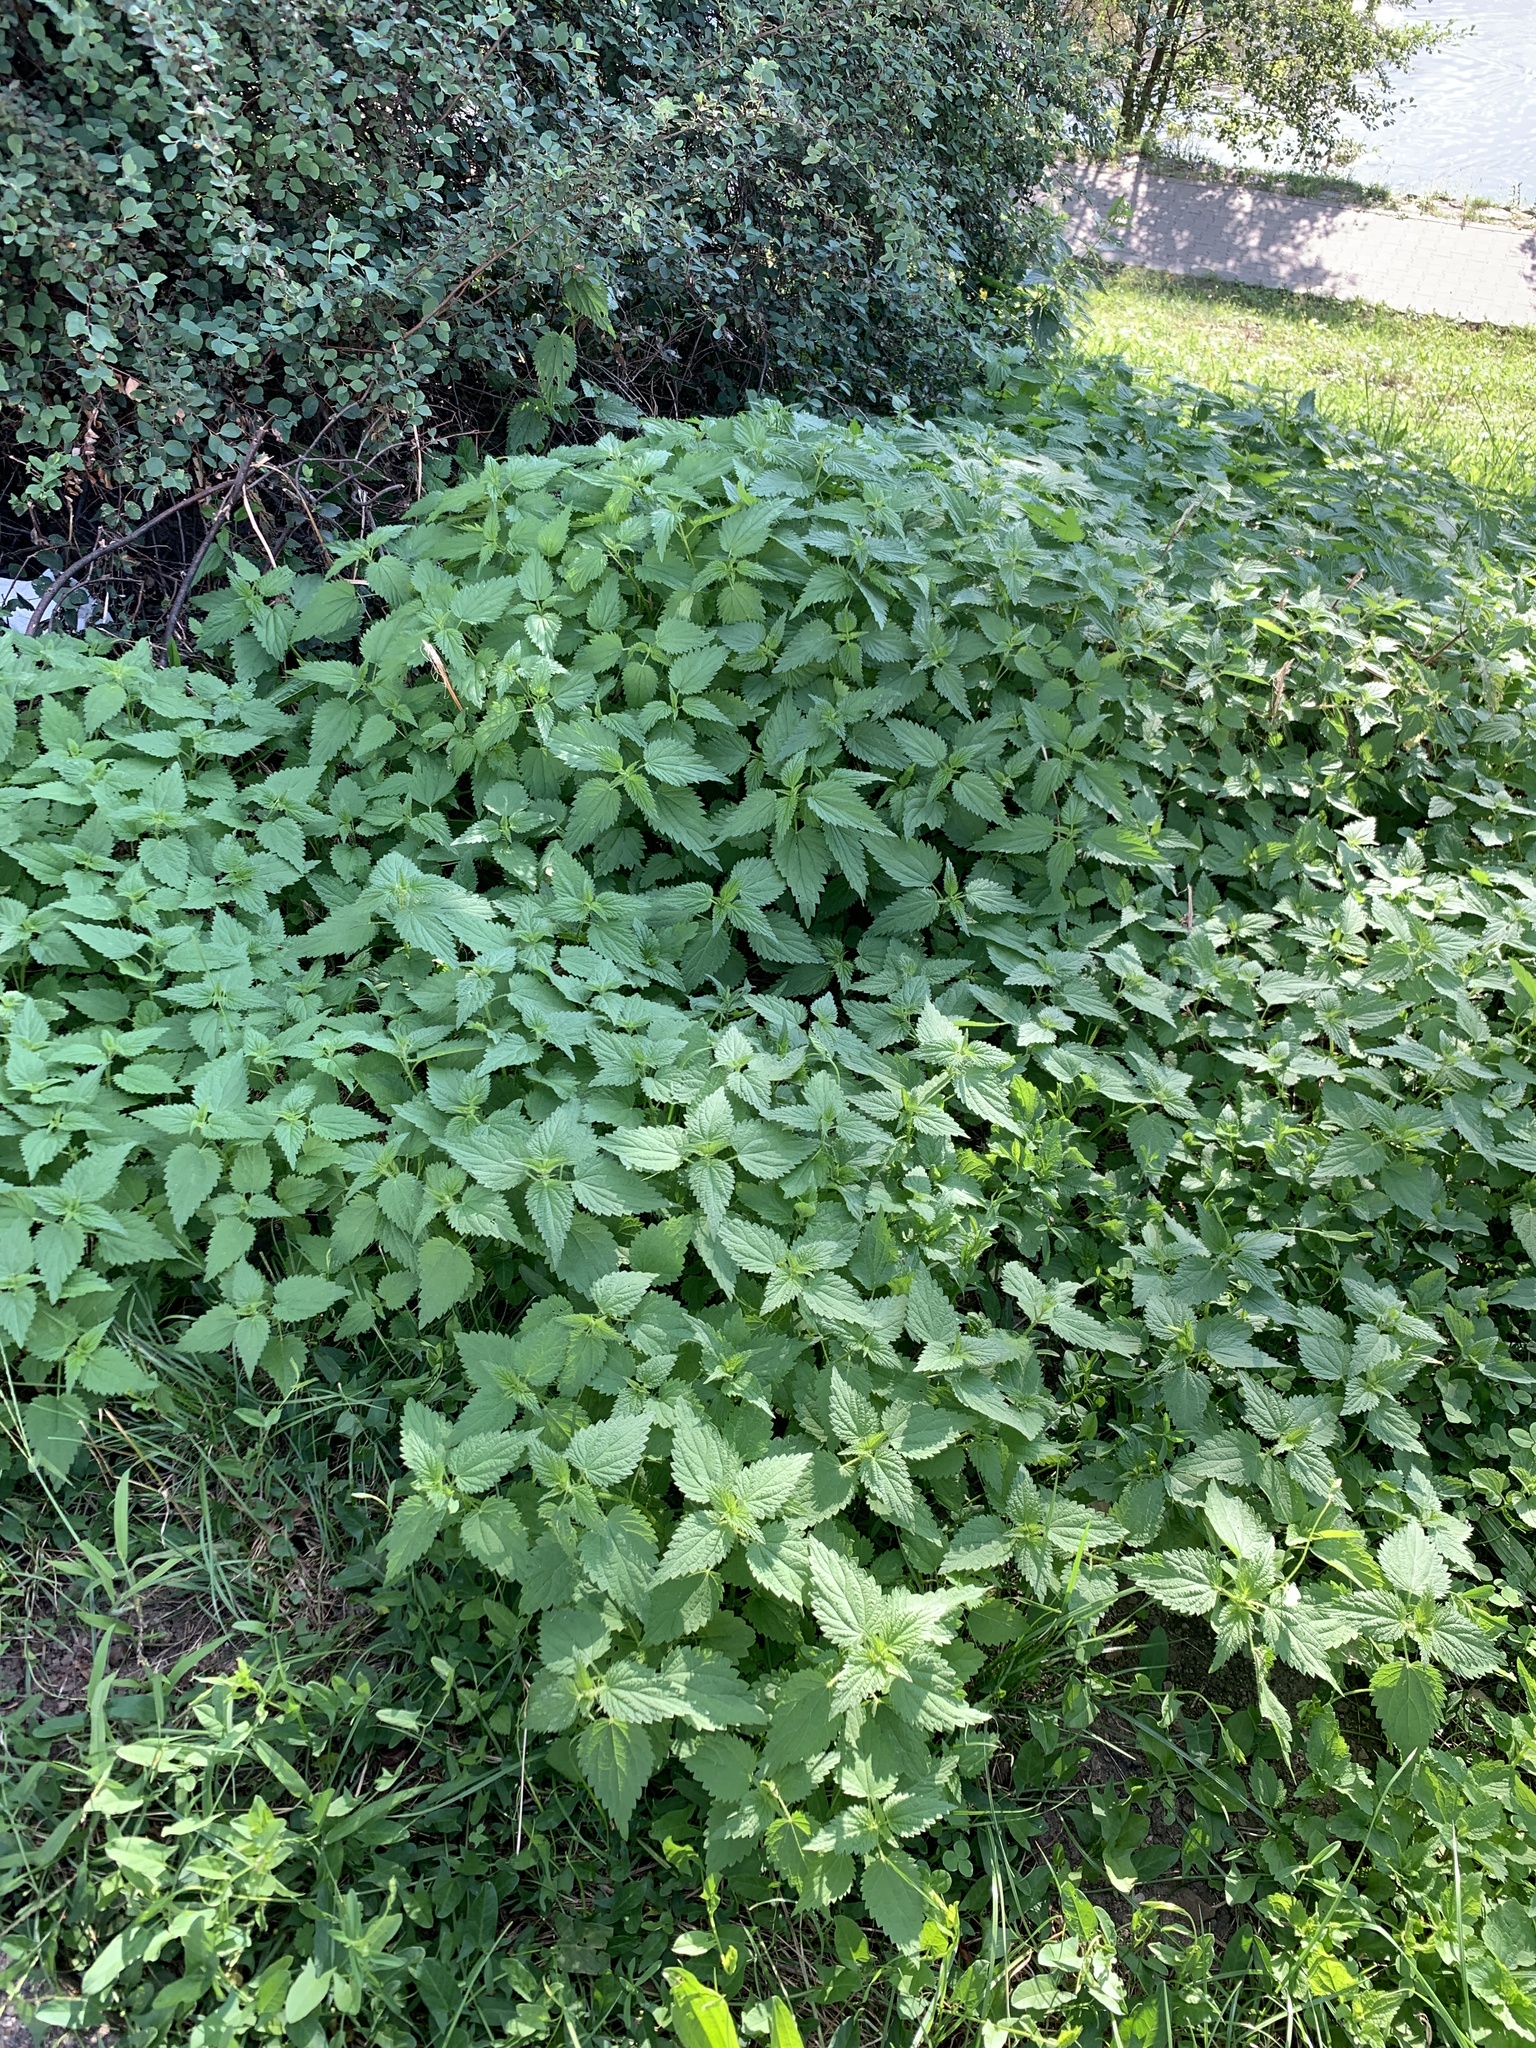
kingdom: Plantae
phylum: Tracheophyta
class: Magnoliopsida
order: Rosales
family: Urticaceae
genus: Urtica
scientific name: Urtica dioica
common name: Common nettle
